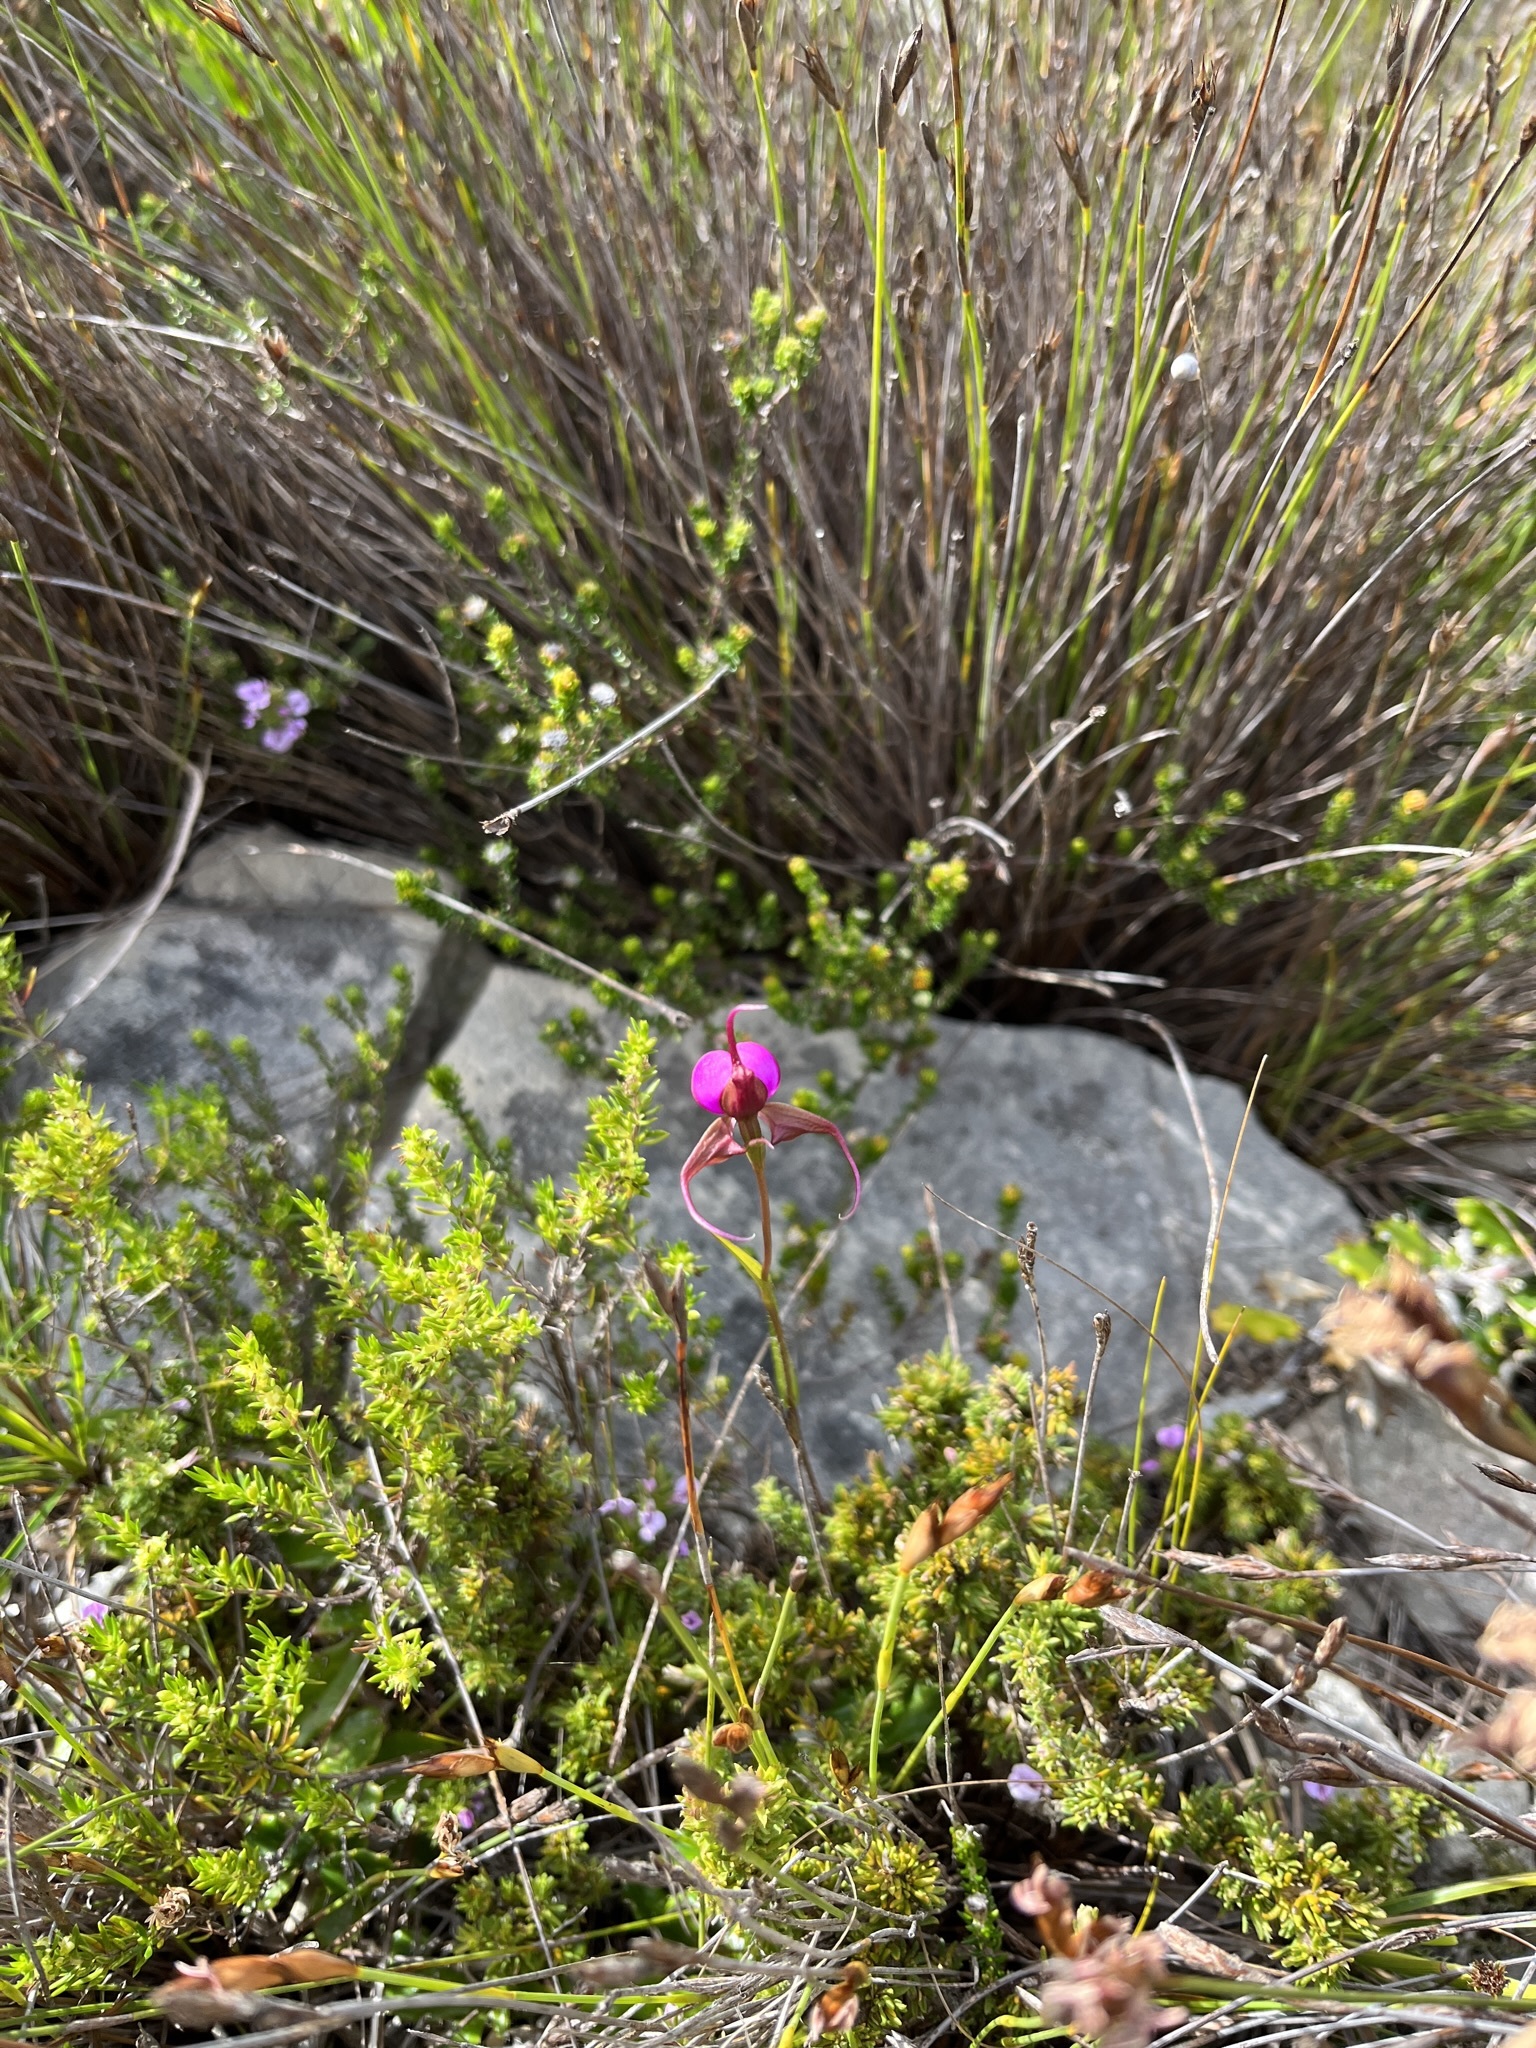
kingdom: Plantae
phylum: Tracheophyta
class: Liliopsida
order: Asparagales
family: Orchidaceae
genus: Disperis
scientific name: Disperis capensis
